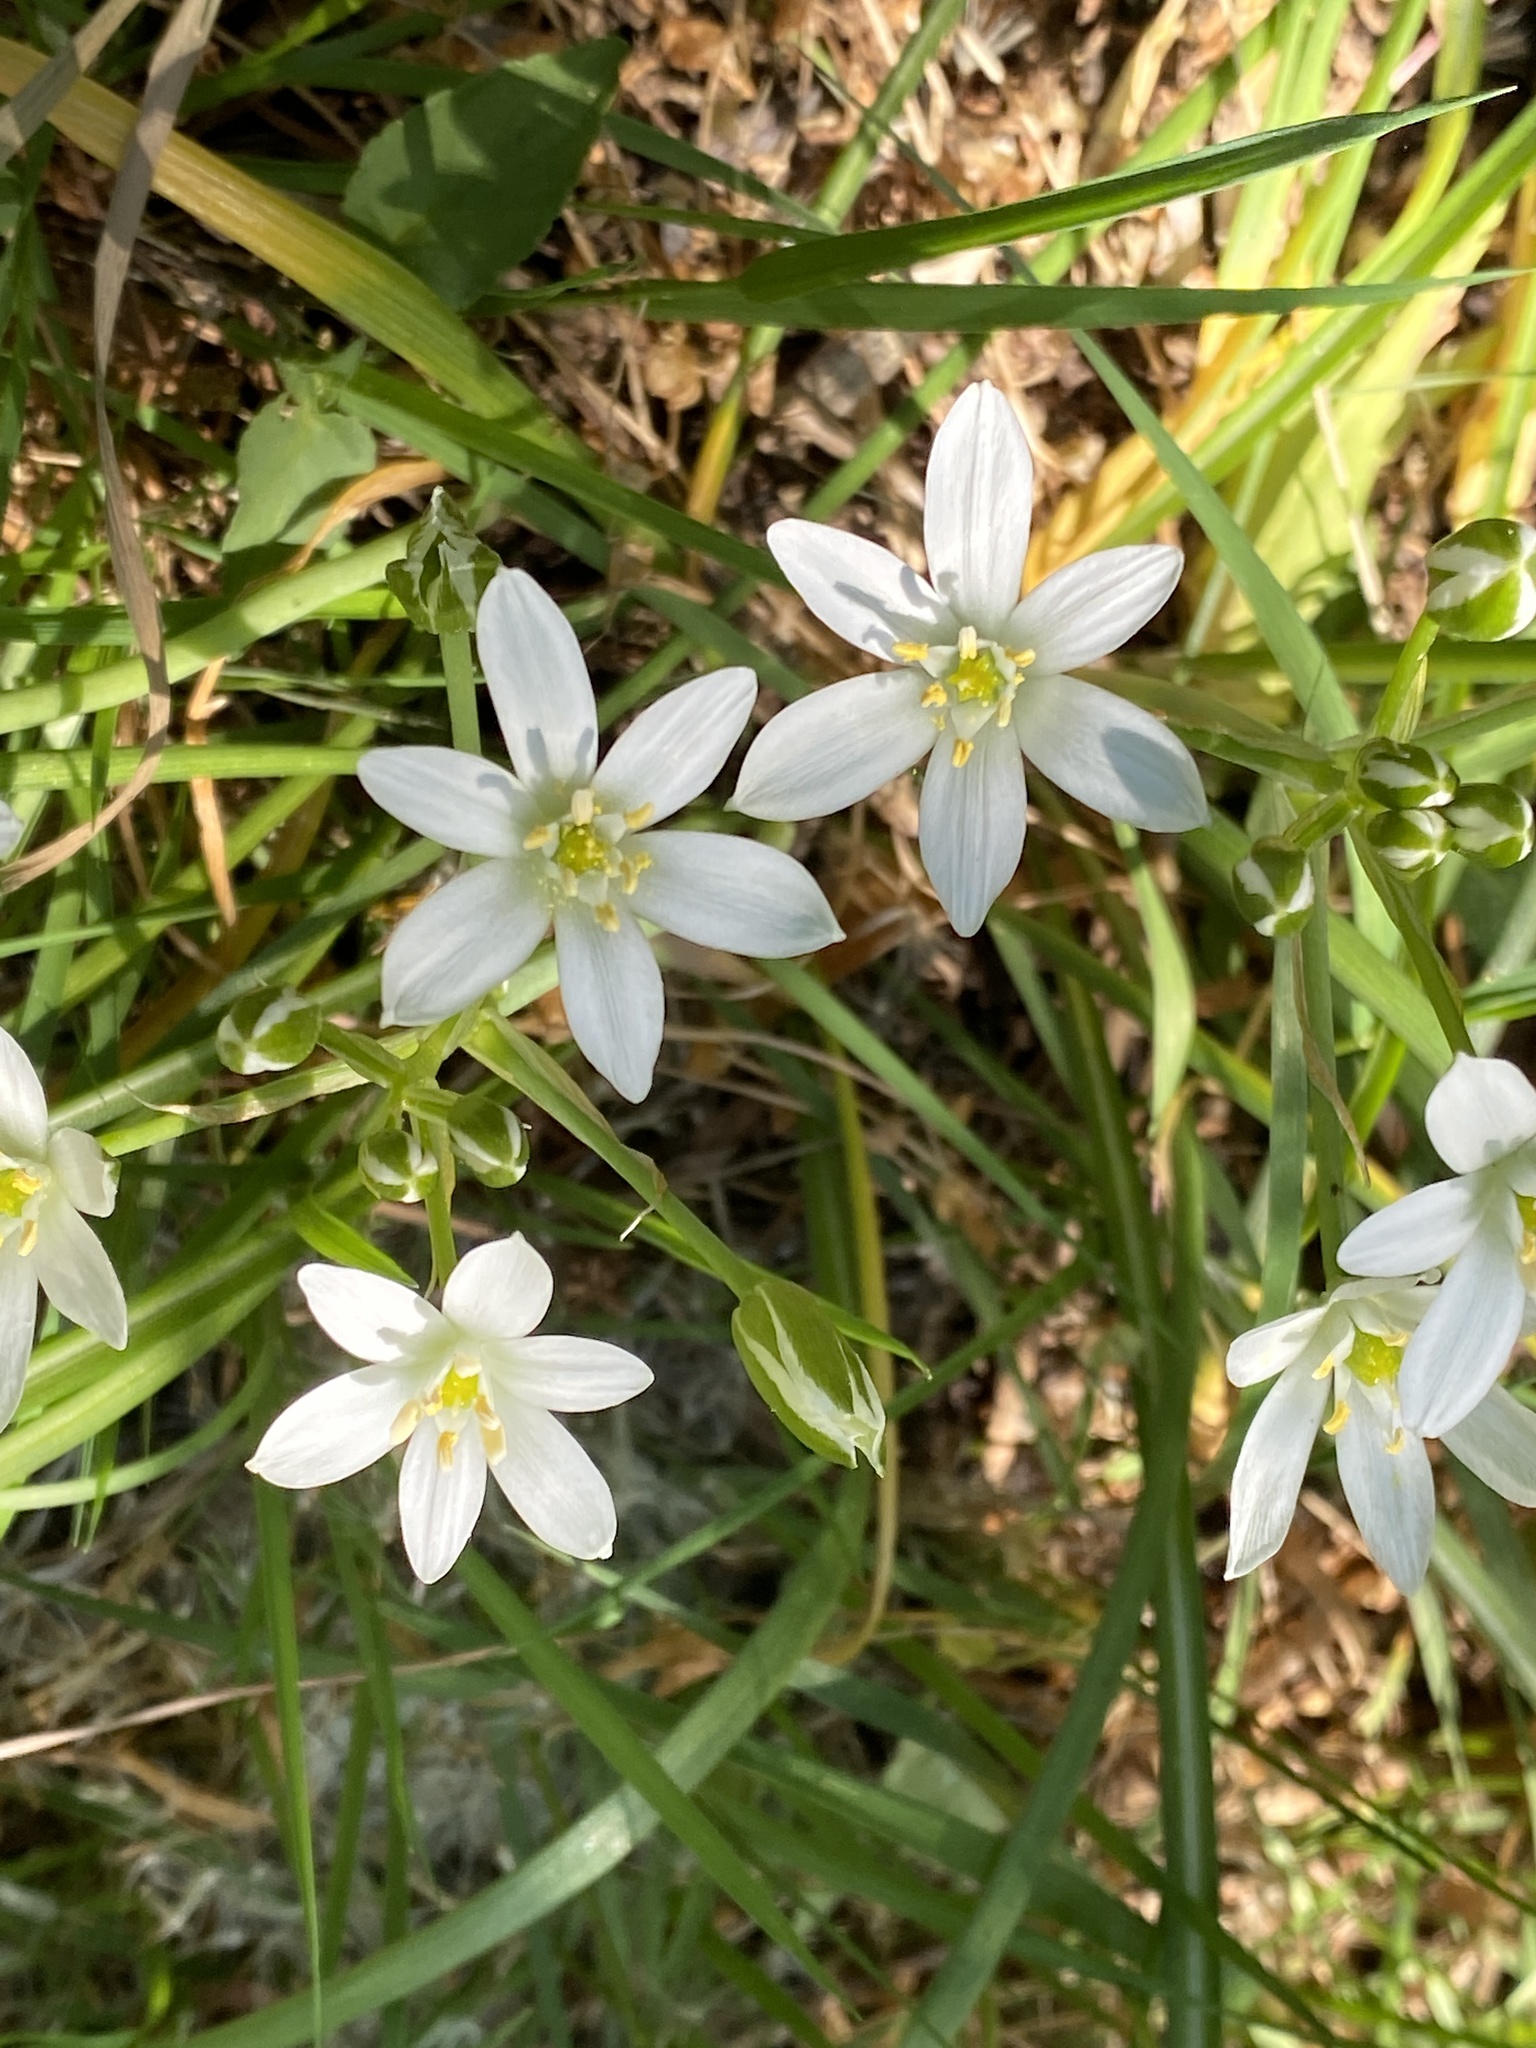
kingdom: Plantae
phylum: Tracheophyta
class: Liliopsida
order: Asparagales
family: Asparagaceae
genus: Ornithogalum
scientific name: Ornithogalum umbellatum
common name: Garden star-of-bethlehem
